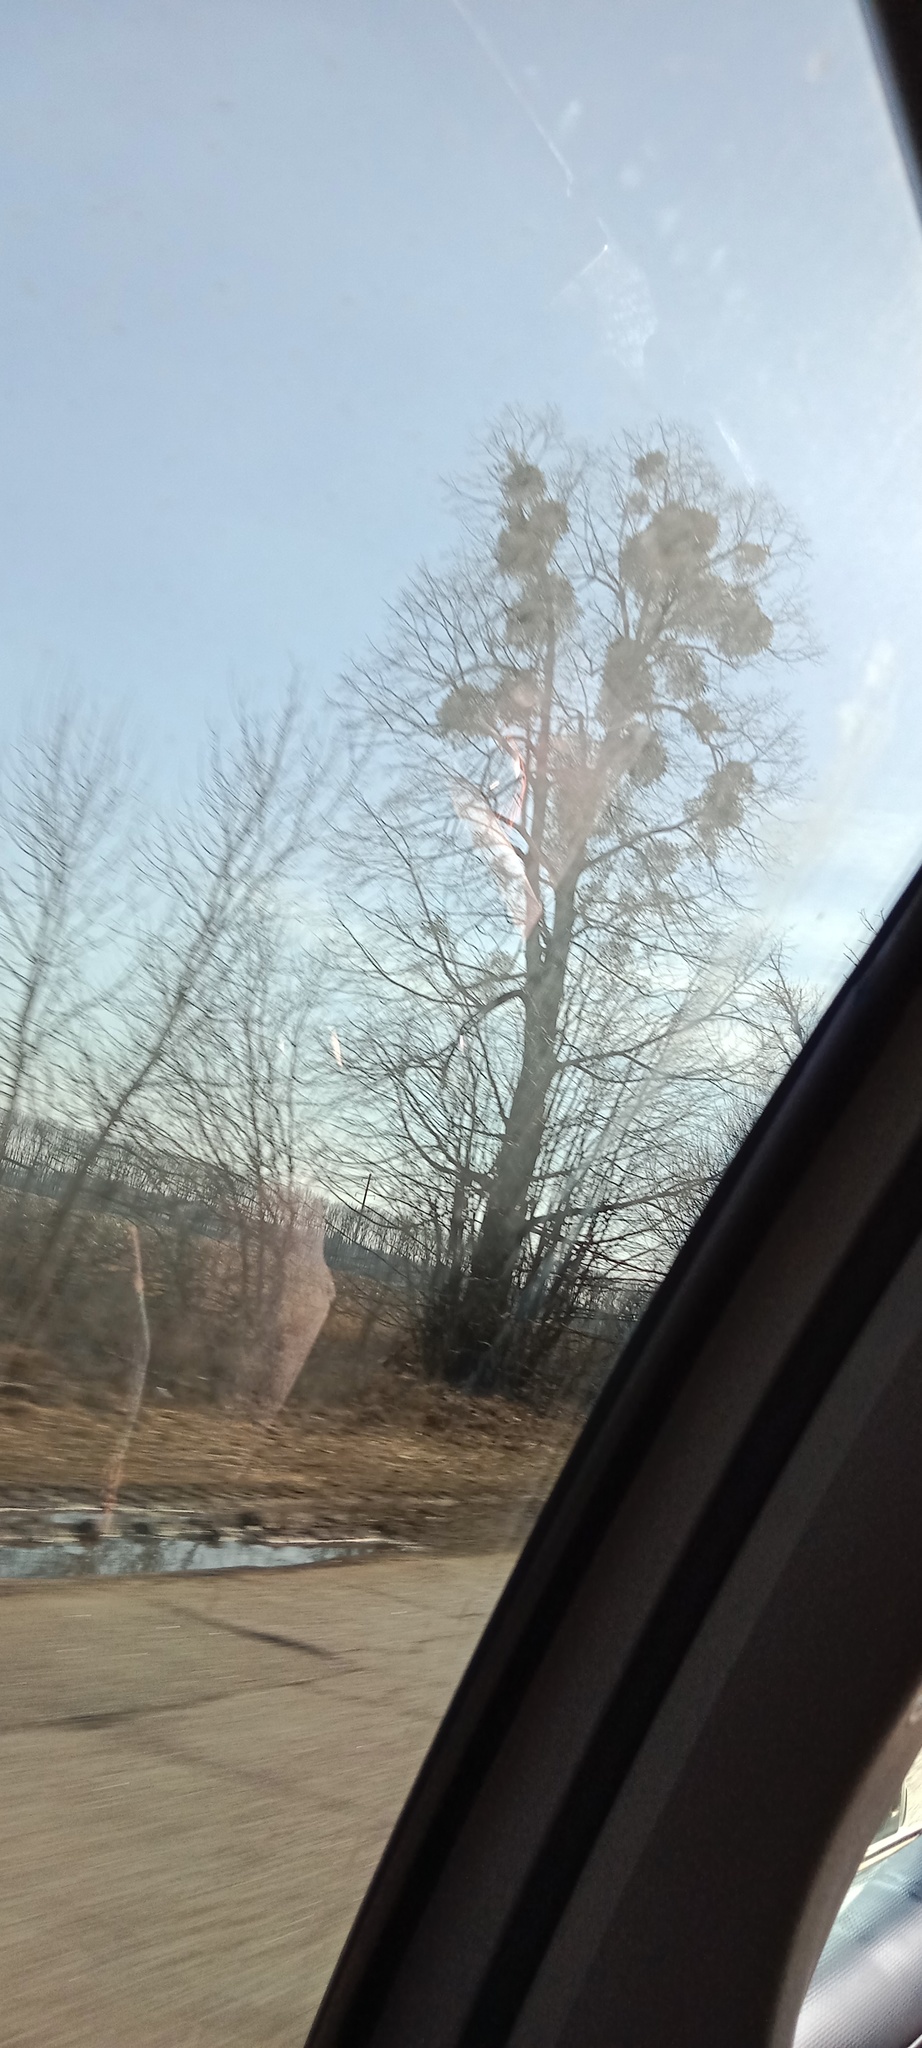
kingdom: Plantae
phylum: Tracheophyta
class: Magnoliopsida
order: Santalales
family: Viscaceae
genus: Viscum
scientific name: Viscum album
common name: Mistletoe
